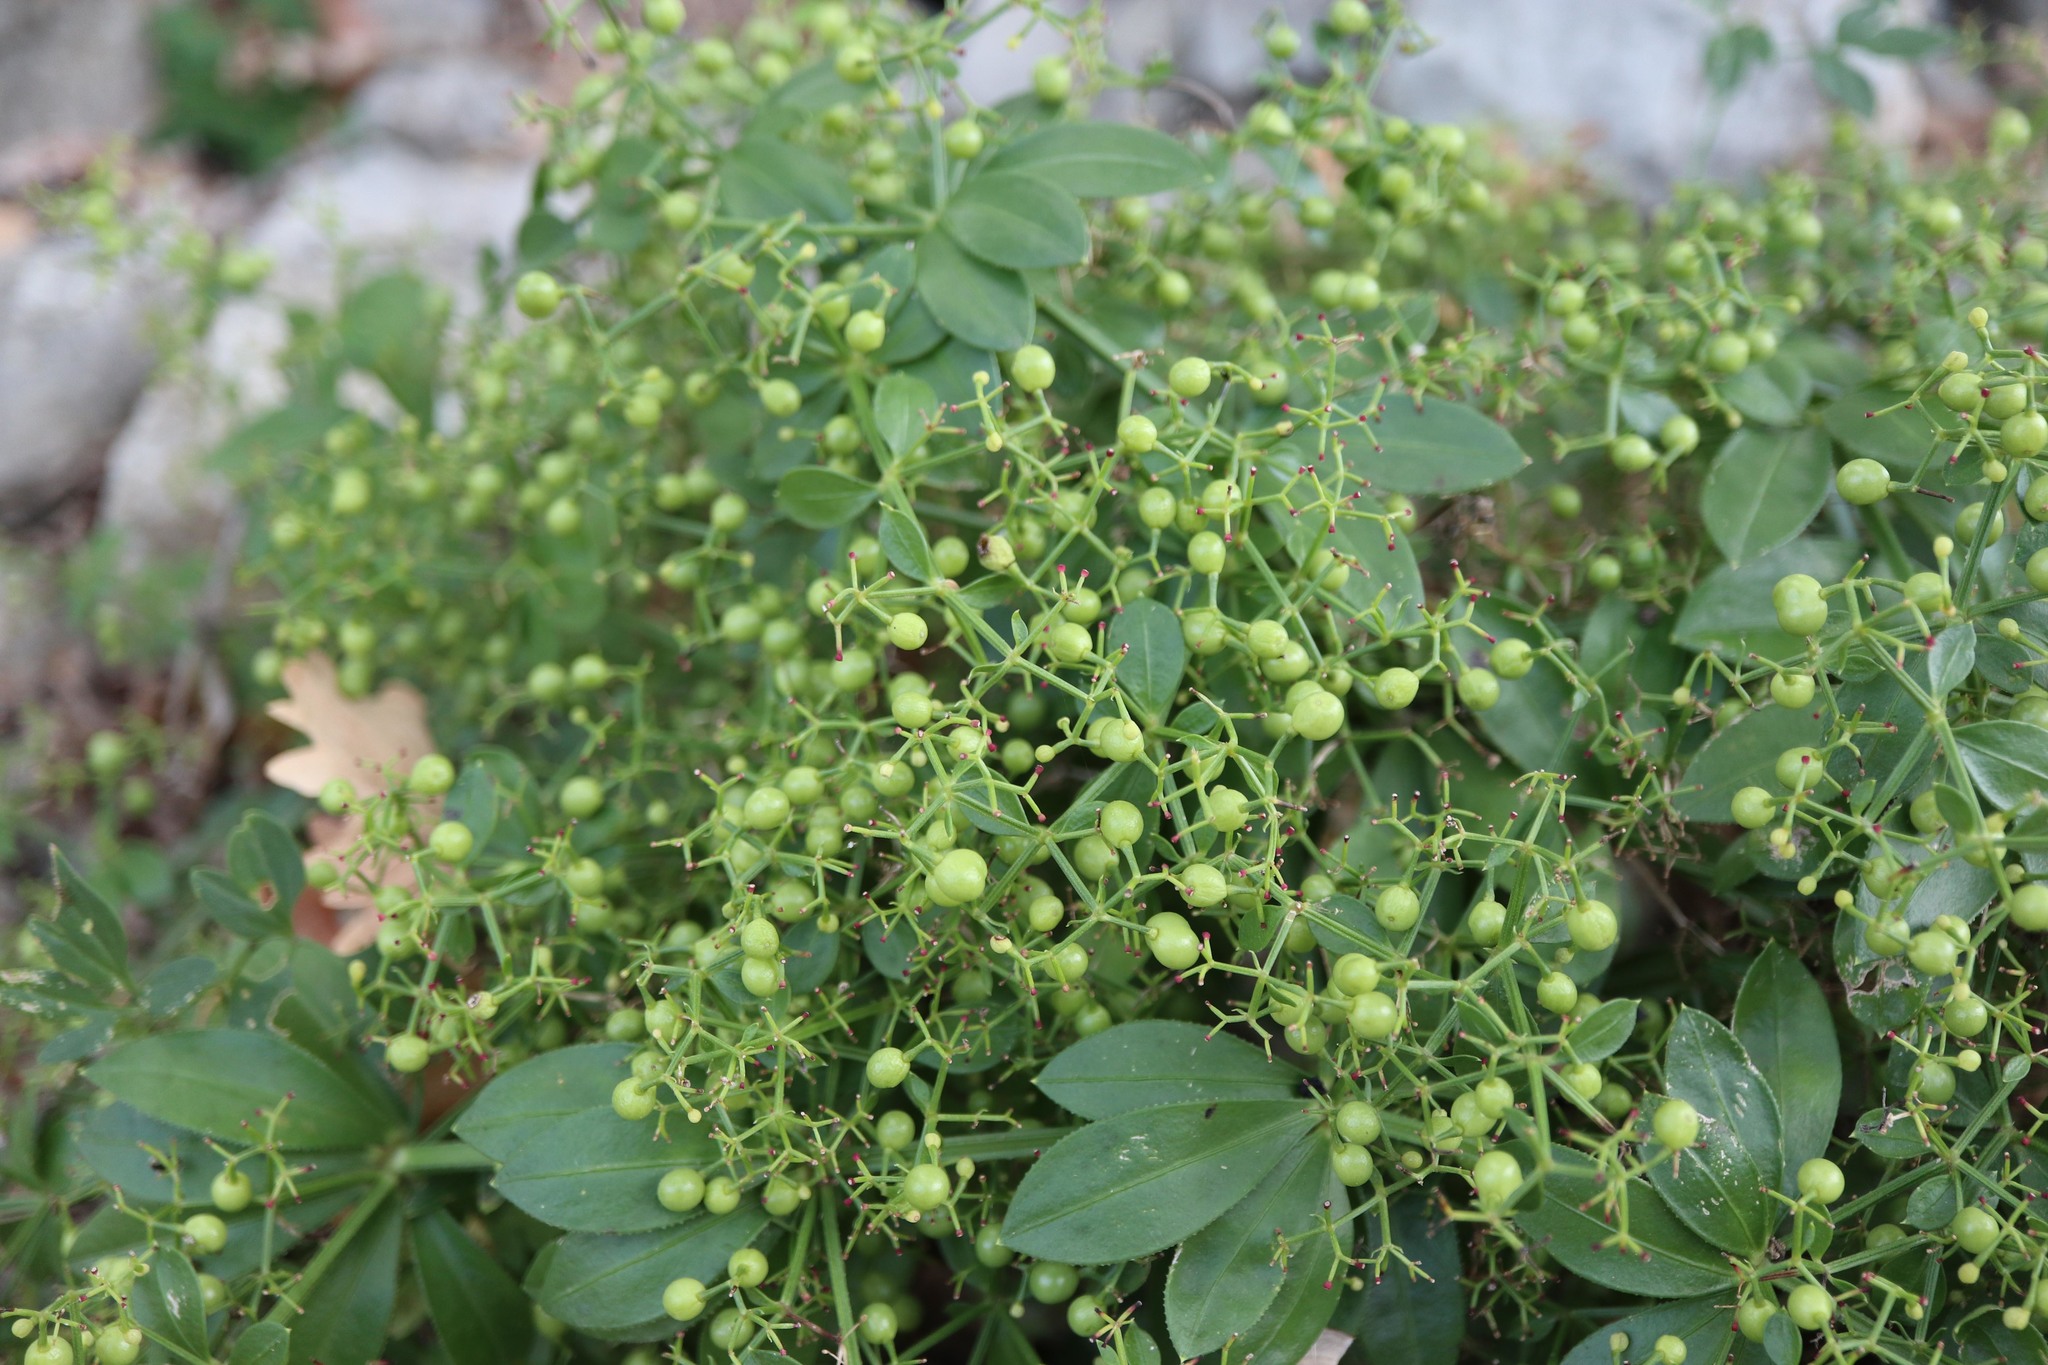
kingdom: Plantae
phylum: Tracheophyta
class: Magnoliopsida
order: Gentianales
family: Rubiaceae
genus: Rubia
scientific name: Rubia peregrina
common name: Wild madder
